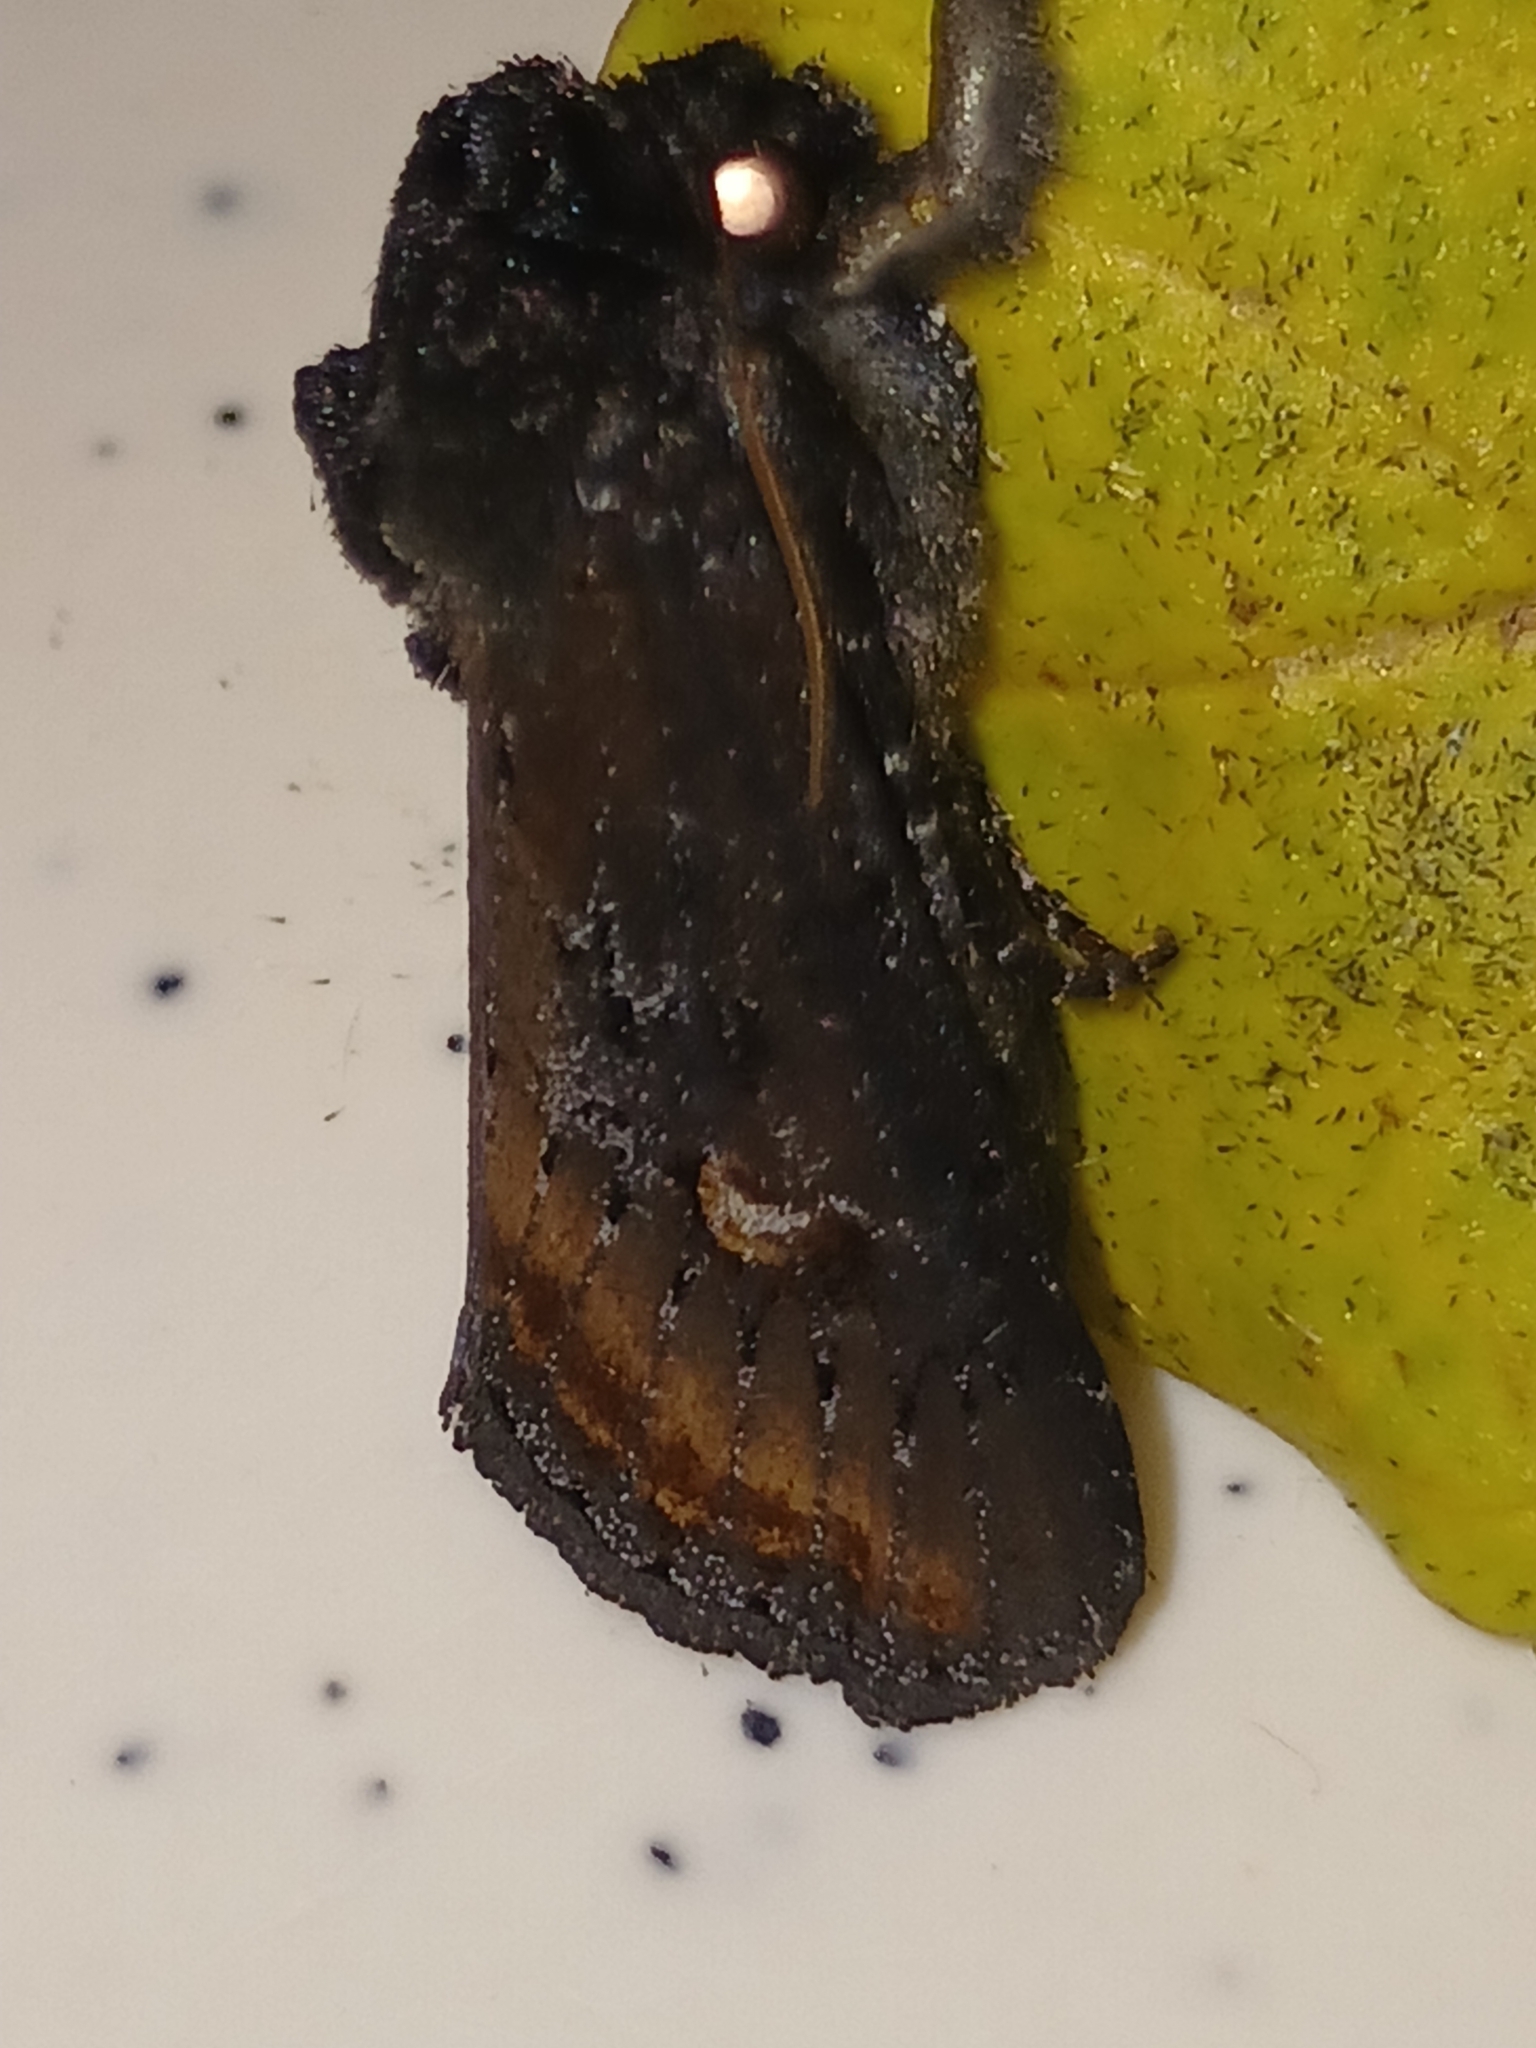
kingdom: Animalia
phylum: Arthropoda
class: Insecta
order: Lepidoptera
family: Noctuidae
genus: Brithys
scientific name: Brithys crini
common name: Kew arches
